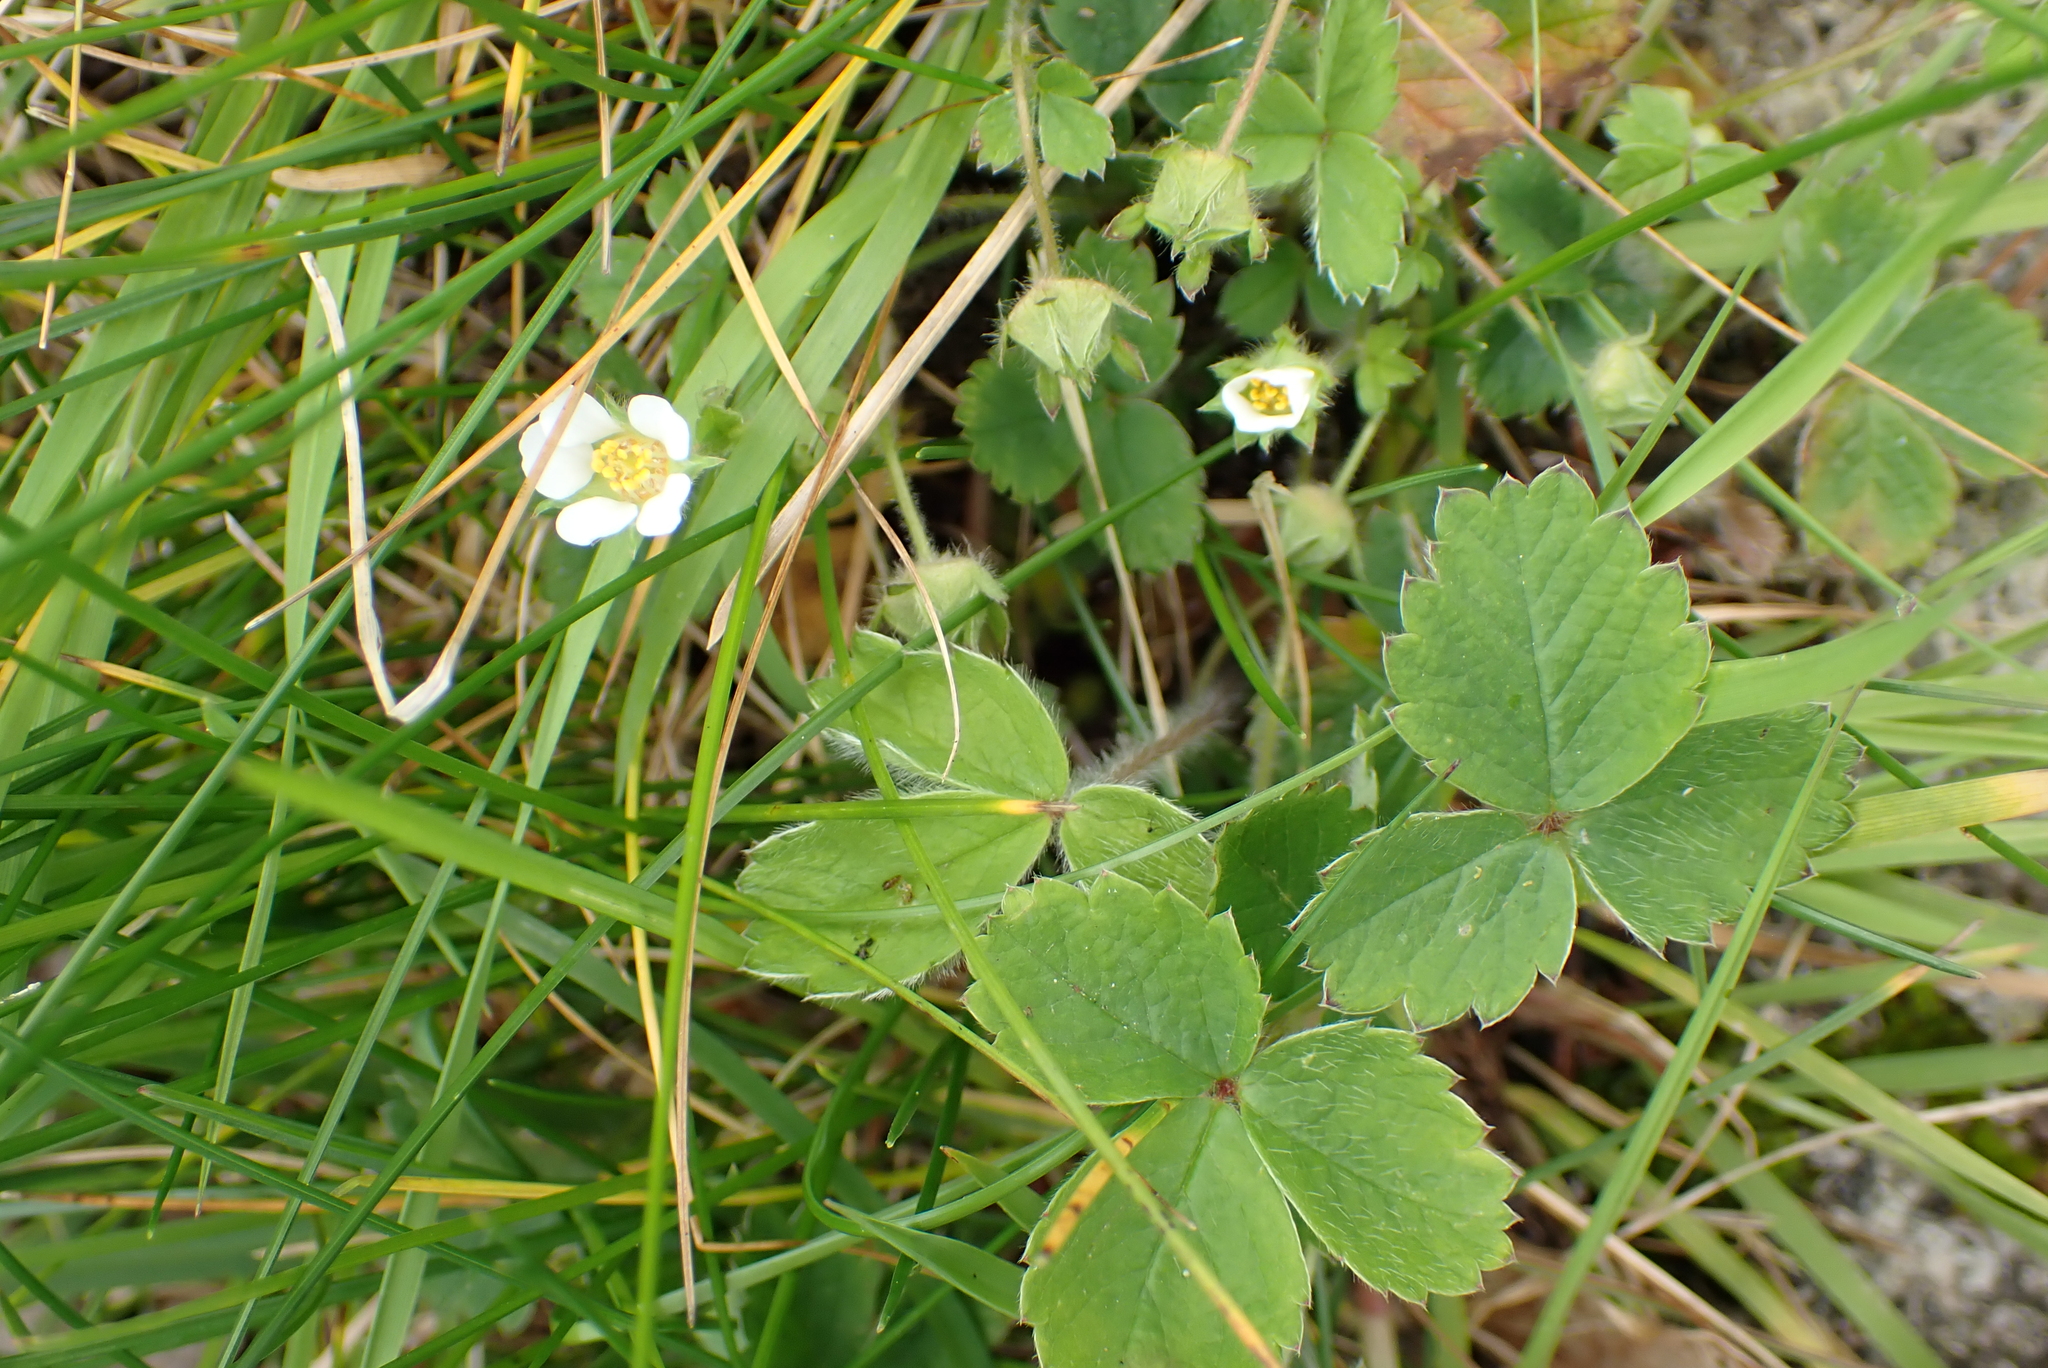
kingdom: Plantae
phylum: Tracheophyta
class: Magnoliopsida
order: Rosales
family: Rosaceae
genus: Potentilla
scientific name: Potentilla sterilis
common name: Barren strawberry
